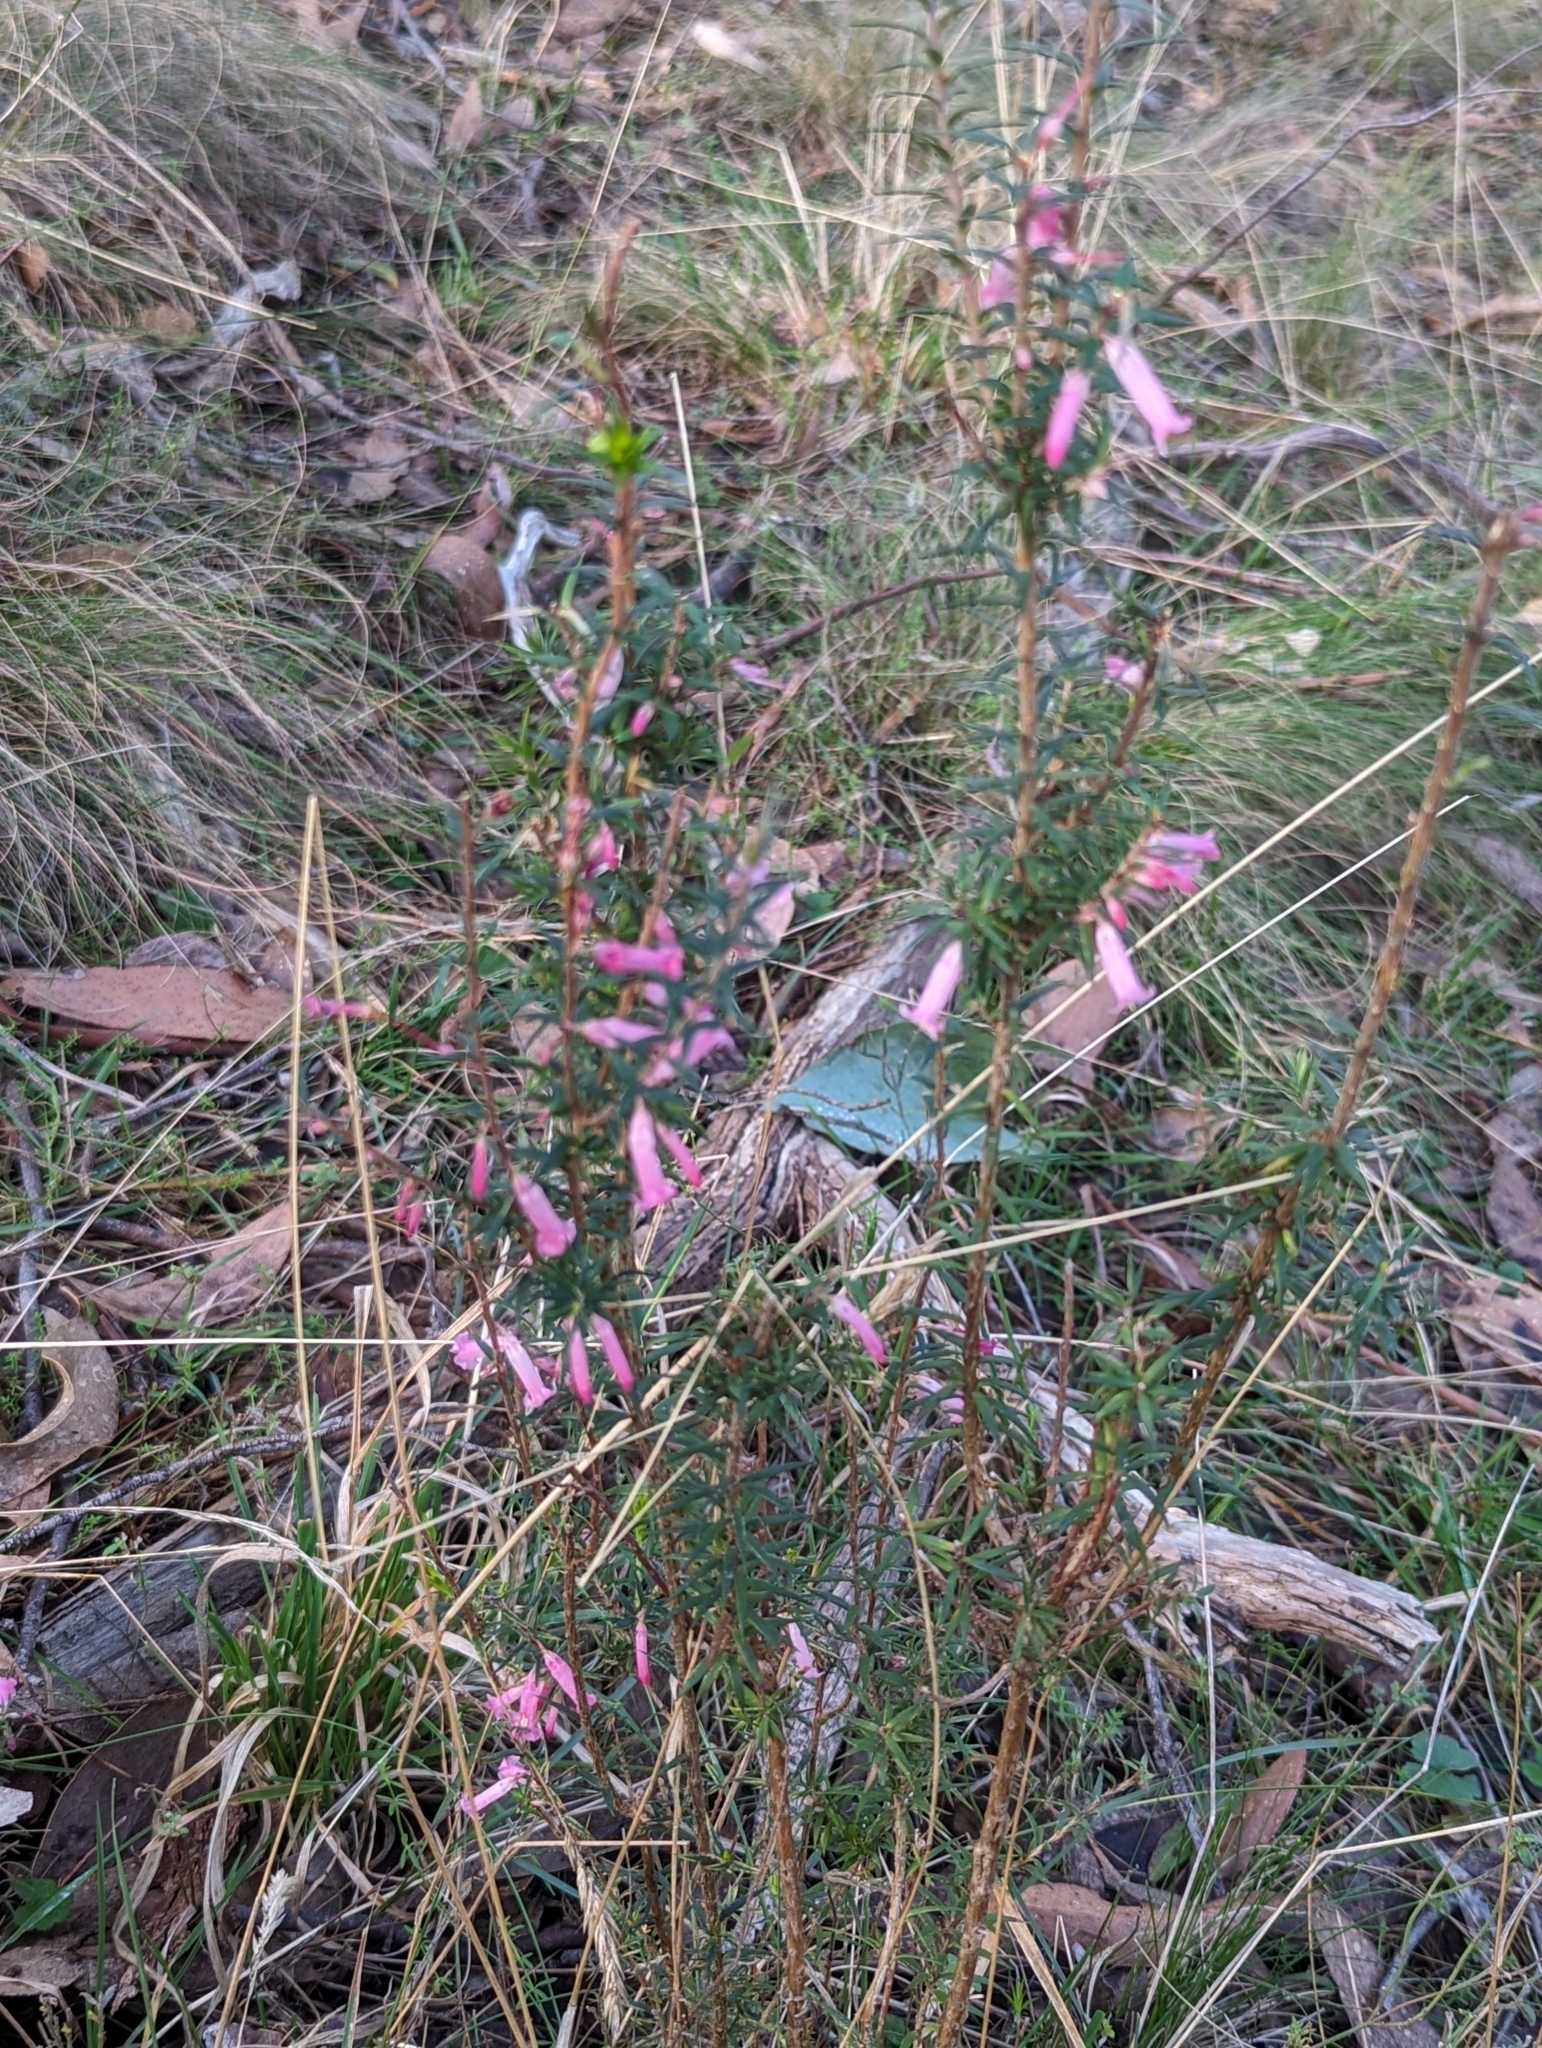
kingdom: Plantae
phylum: Tracheophyta
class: Magnoliopsida
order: Ericales
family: Ericaceae
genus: Epacris
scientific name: Epacris impressa
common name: Common-heath
